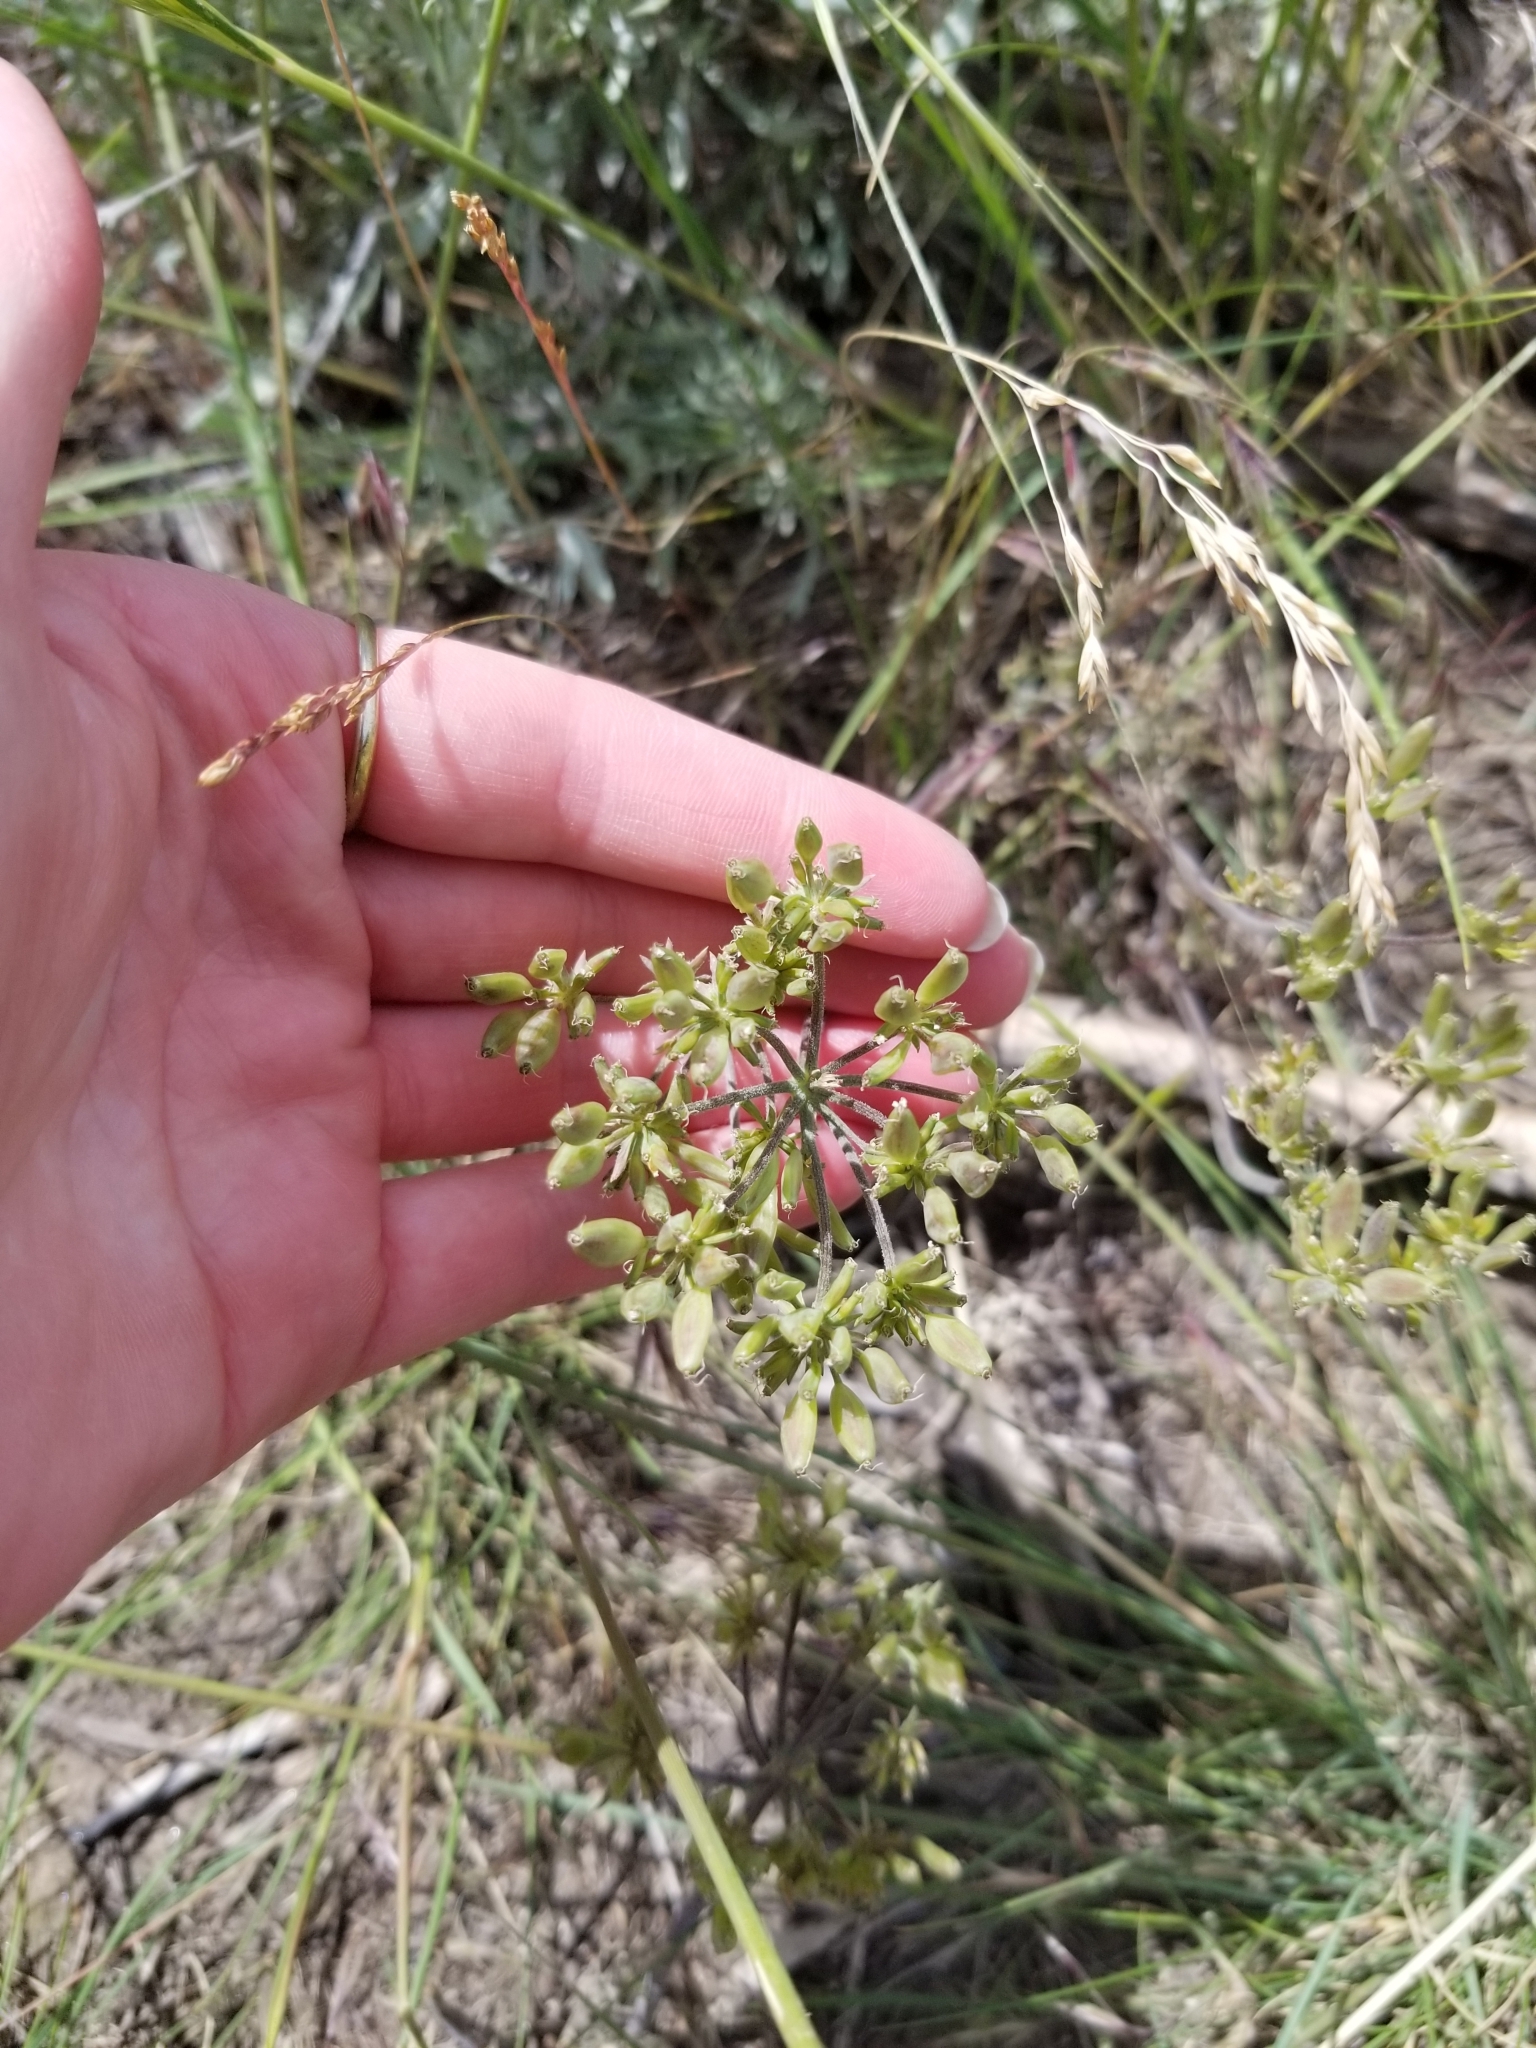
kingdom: Plantae
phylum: Tracheophyta
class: Magnoliopsida
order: Apiales
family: Apiaceae
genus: Lomatium
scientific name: Lomatium macrocarpum
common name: Big-seed biscuitroot
